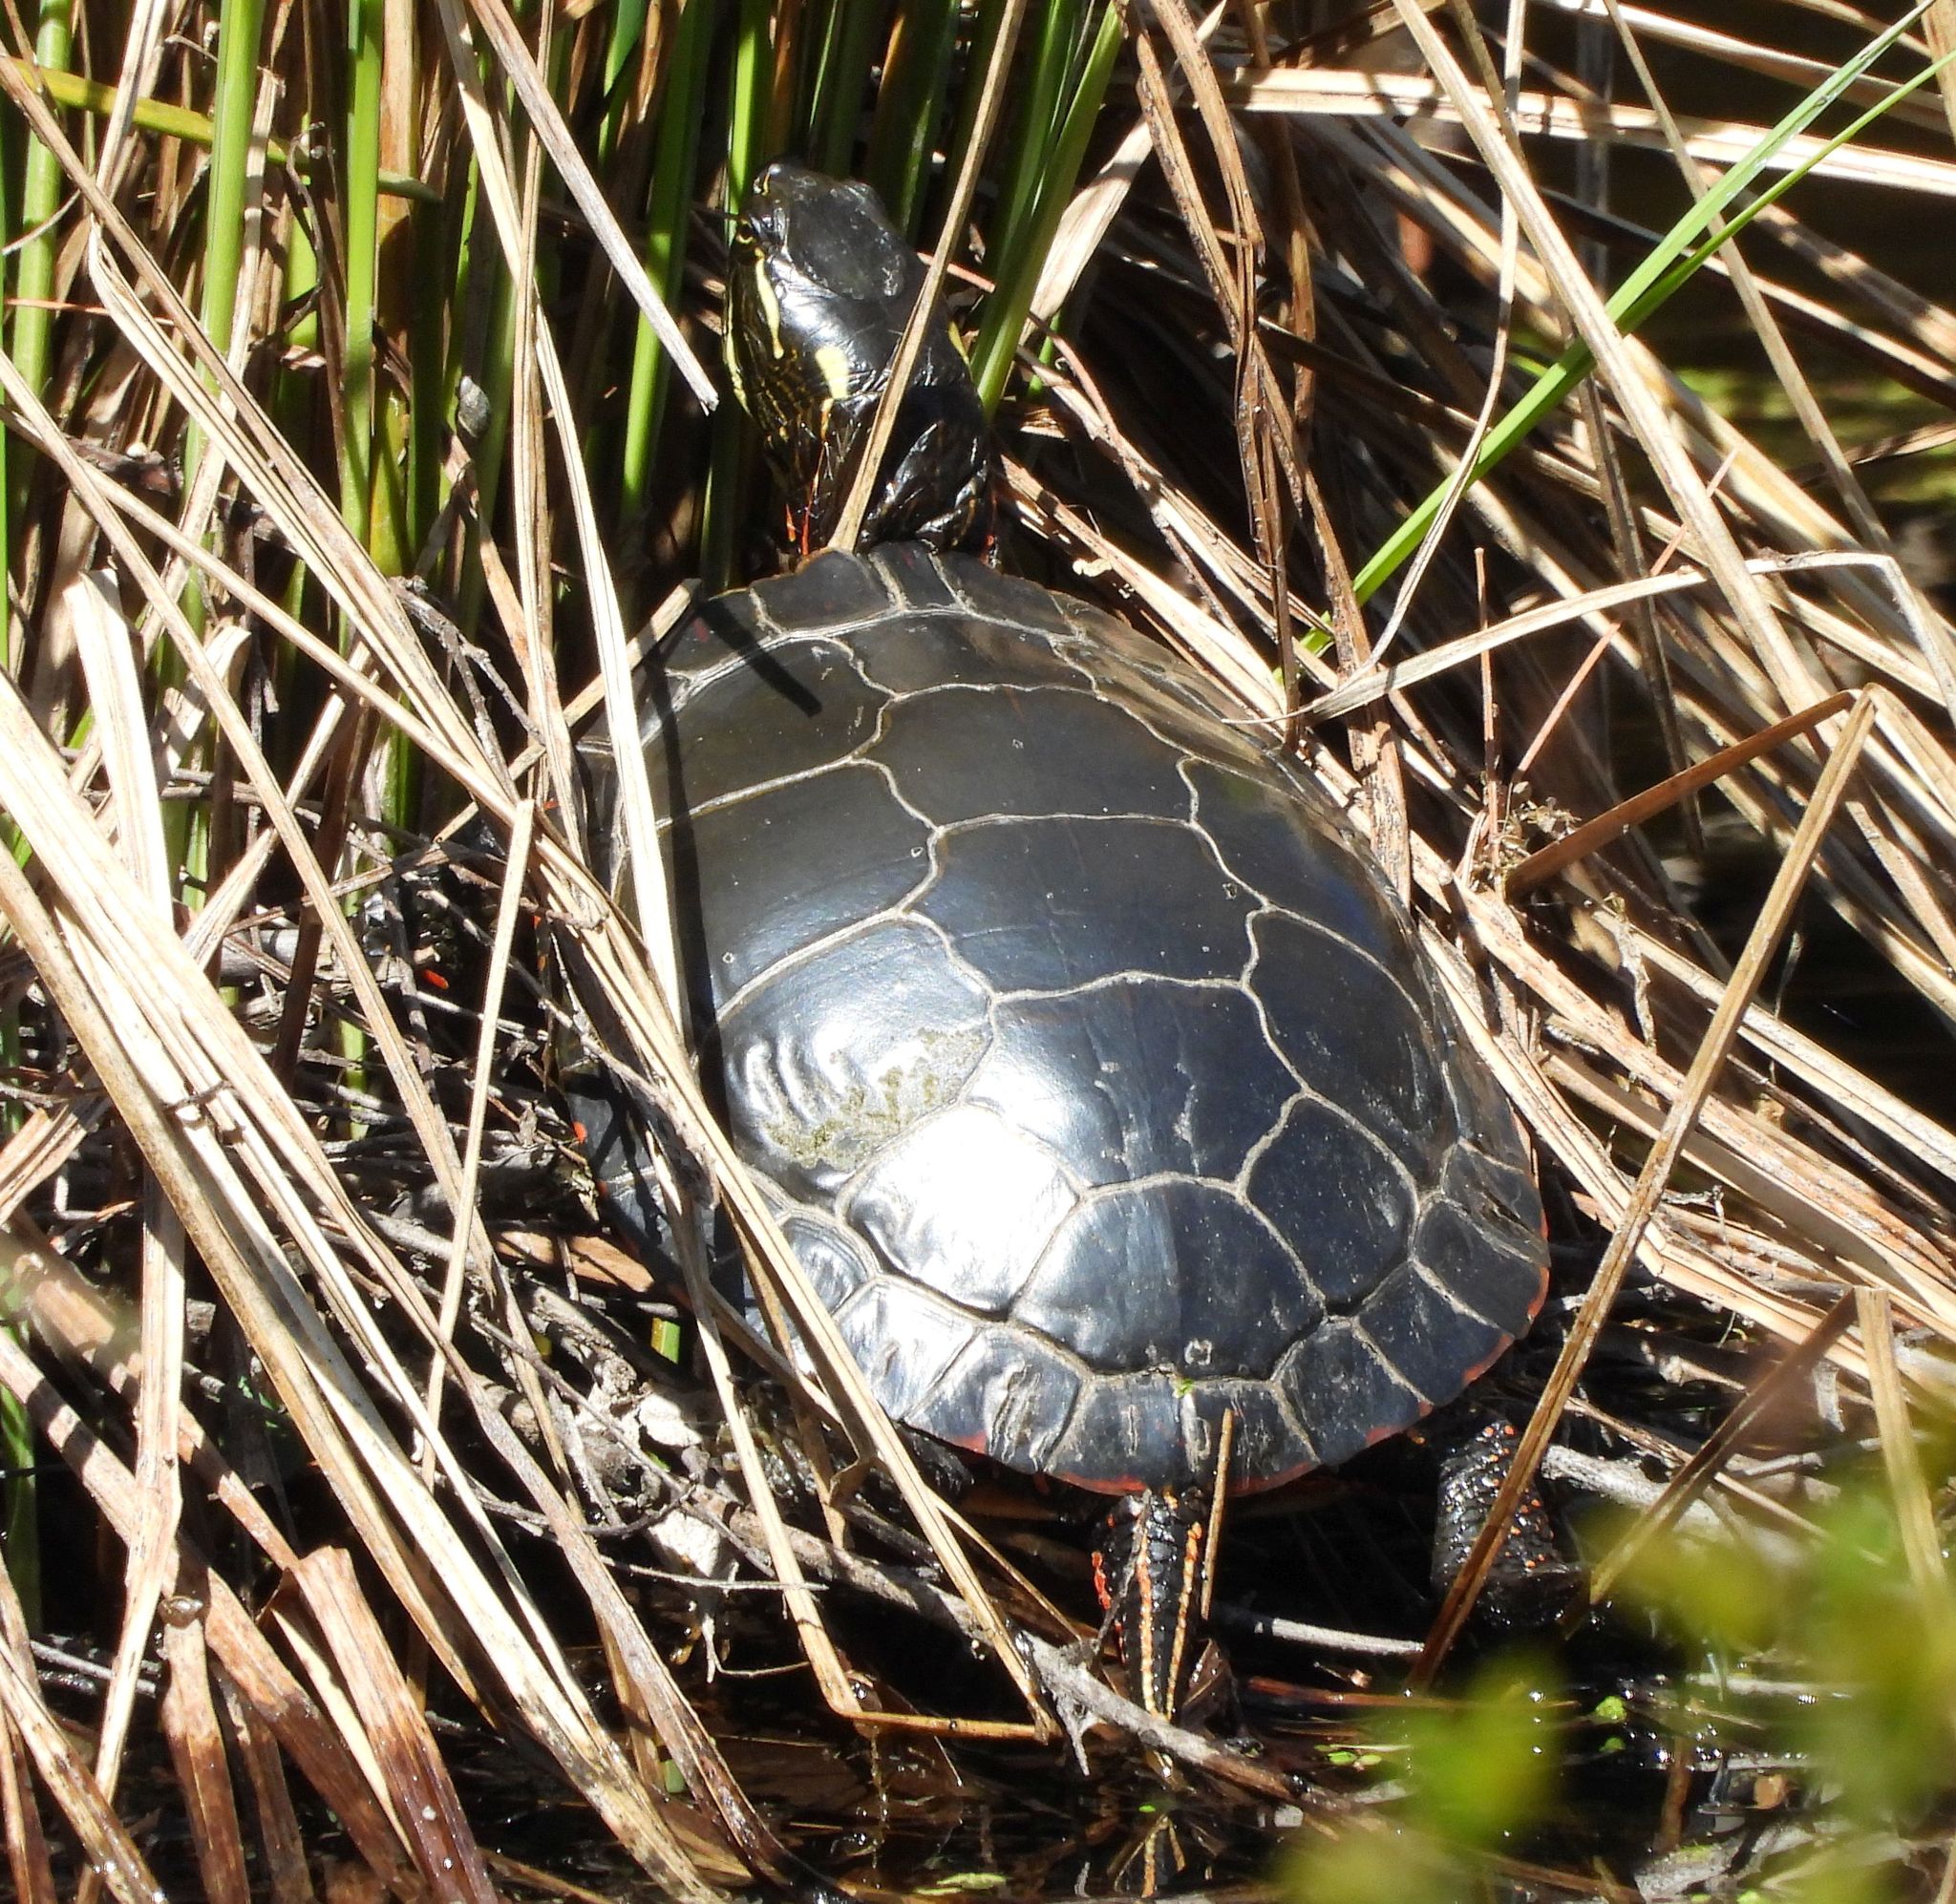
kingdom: Animalia
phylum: Chordata
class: Testudines
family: Emydidae
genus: Chrysemys
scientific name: Chrysemys picta
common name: Painted turtle
